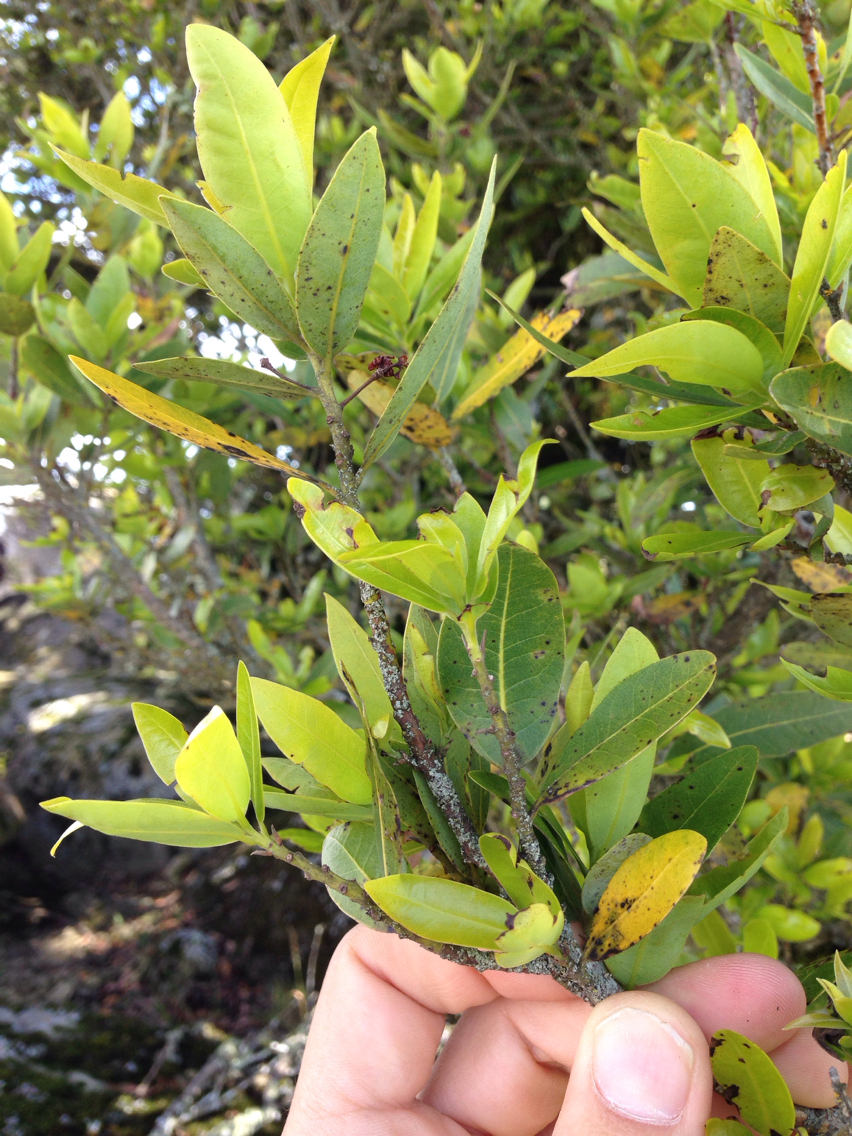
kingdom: Plantae
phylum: Tracheophyta
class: Magnoliopsida
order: Laurales
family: Lauraceae
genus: Umbellularia
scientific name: Umbellularia californica
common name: California bay
